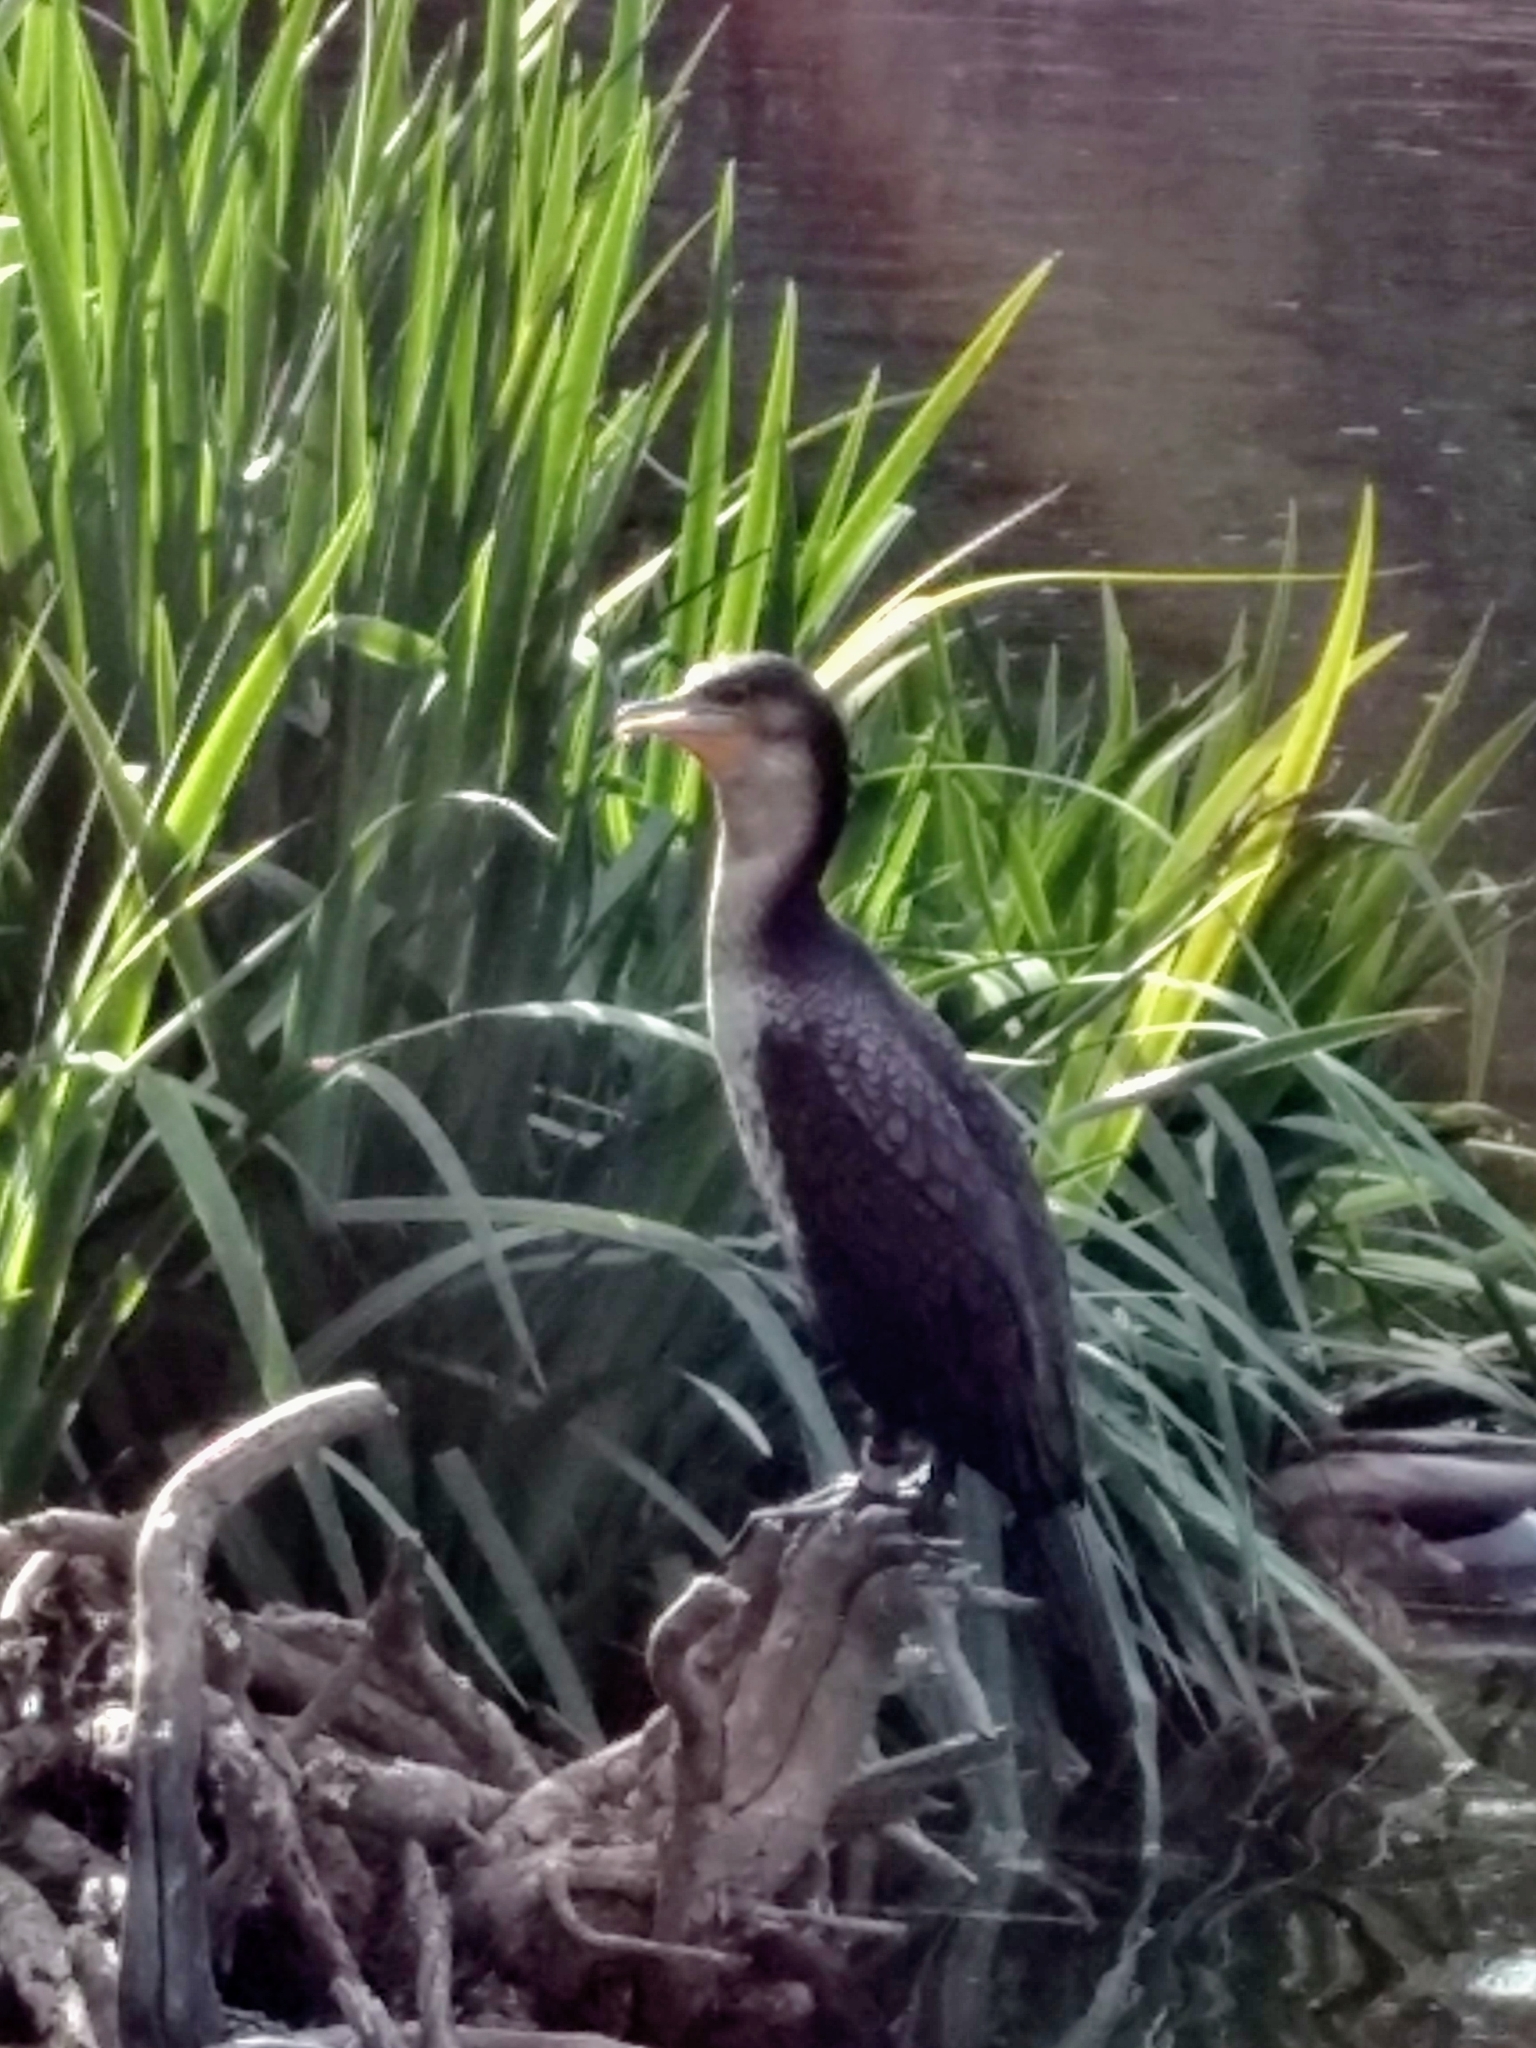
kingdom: Animalia
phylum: Chordata
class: Aves
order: Suliformes
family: Phalacrocoracidae
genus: Phalacrocorax
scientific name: Phalacrocorax auritus
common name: Double-crested cormorant
